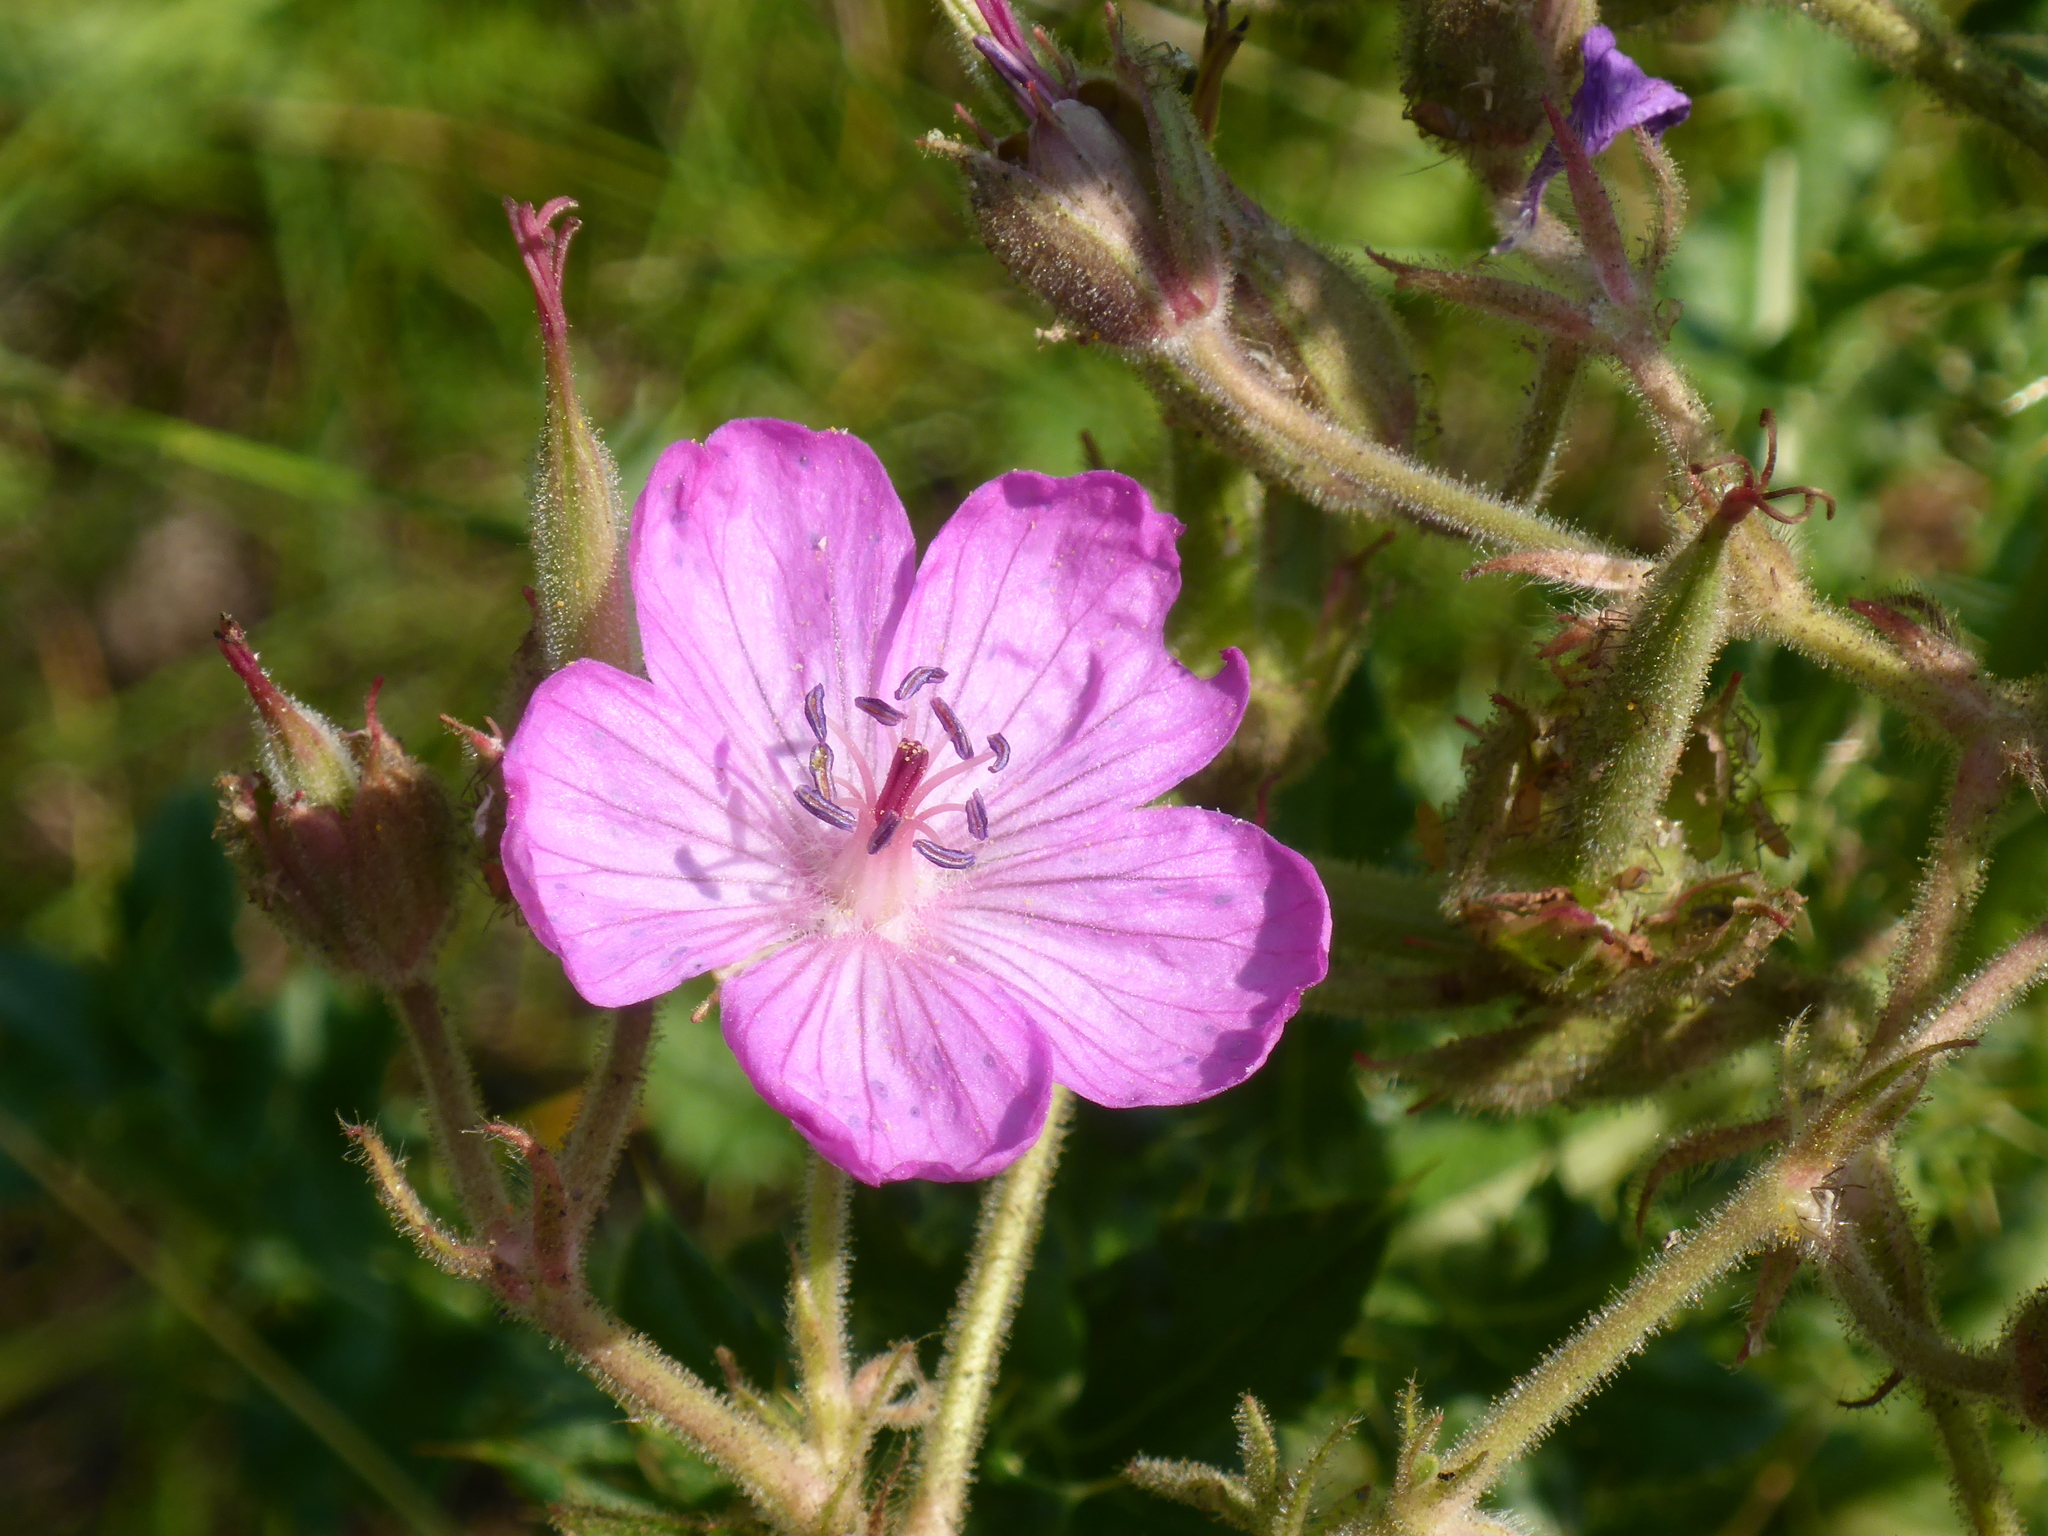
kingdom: Plantae
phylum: Tracheophyta
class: Magnoliopsida
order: Geraniales
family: Geraniaceae
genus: Geranium
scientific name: Geranium viscosissimum
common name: Purple geranium
